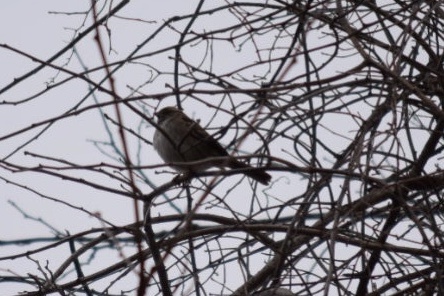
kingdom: Animalia
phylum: Chordata
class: Aves
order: Passeriformes
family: Passerellidae
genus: Zonotrichia
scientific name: Zonotrichia albicollis
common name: White-throated sparrow
